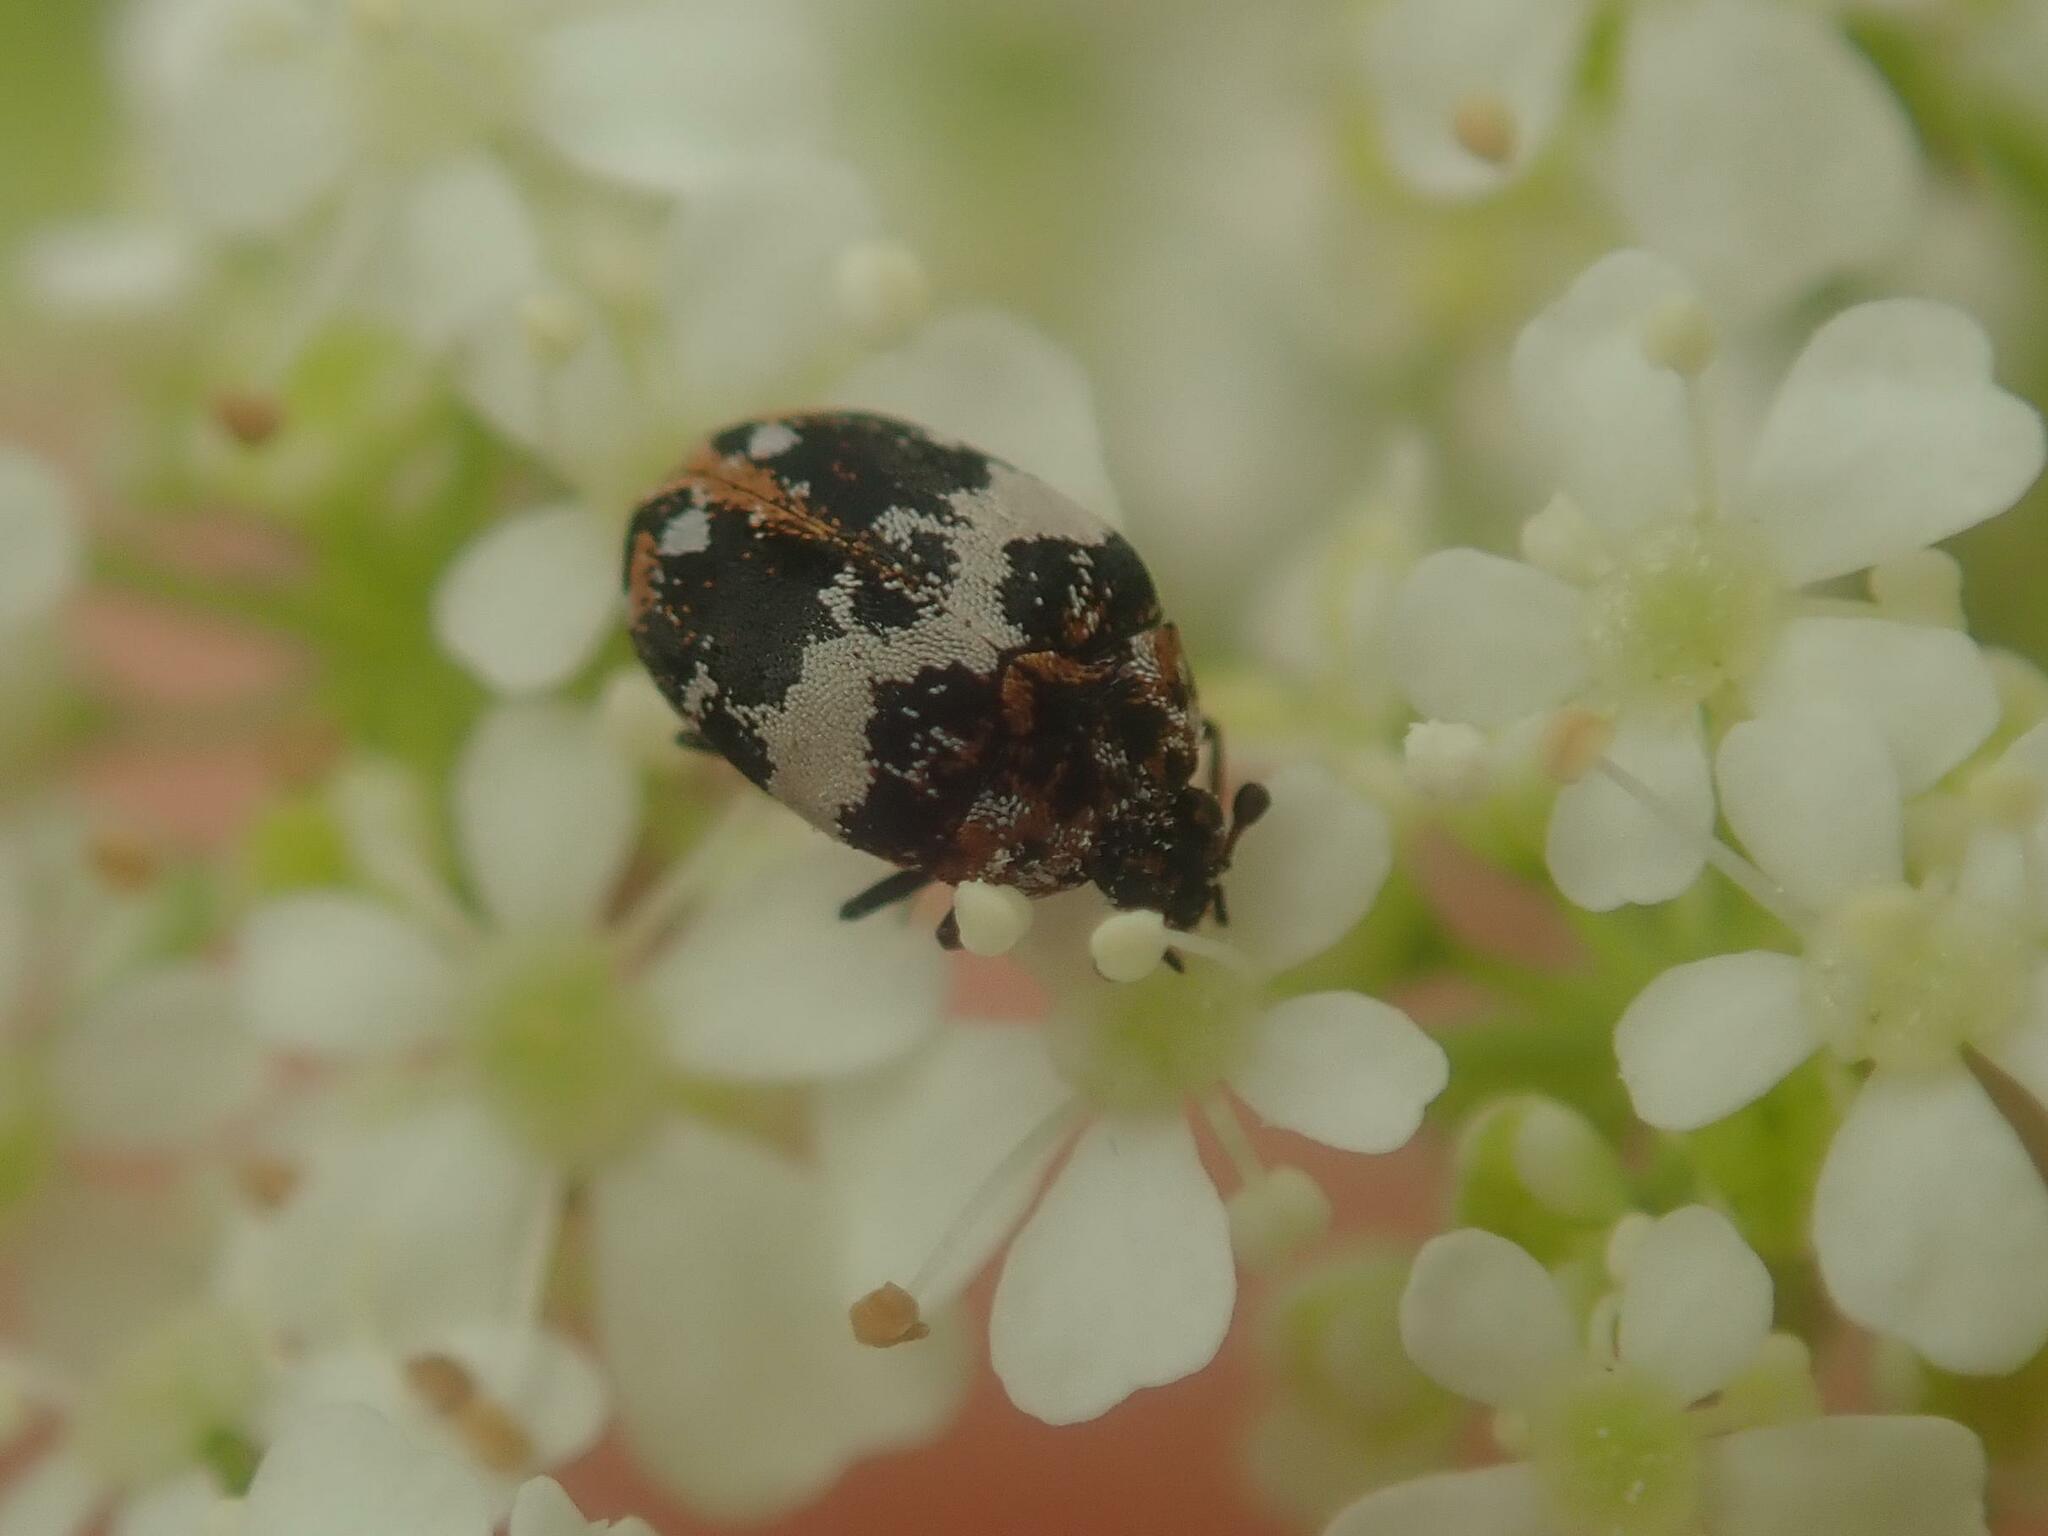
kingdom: Animalia
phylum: Arthropoda
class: Insecta
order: Coleoptera
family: Dermestidae
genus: Anthrenus
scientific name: Anthrenus pimpinellae
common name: Dermestid beetle
